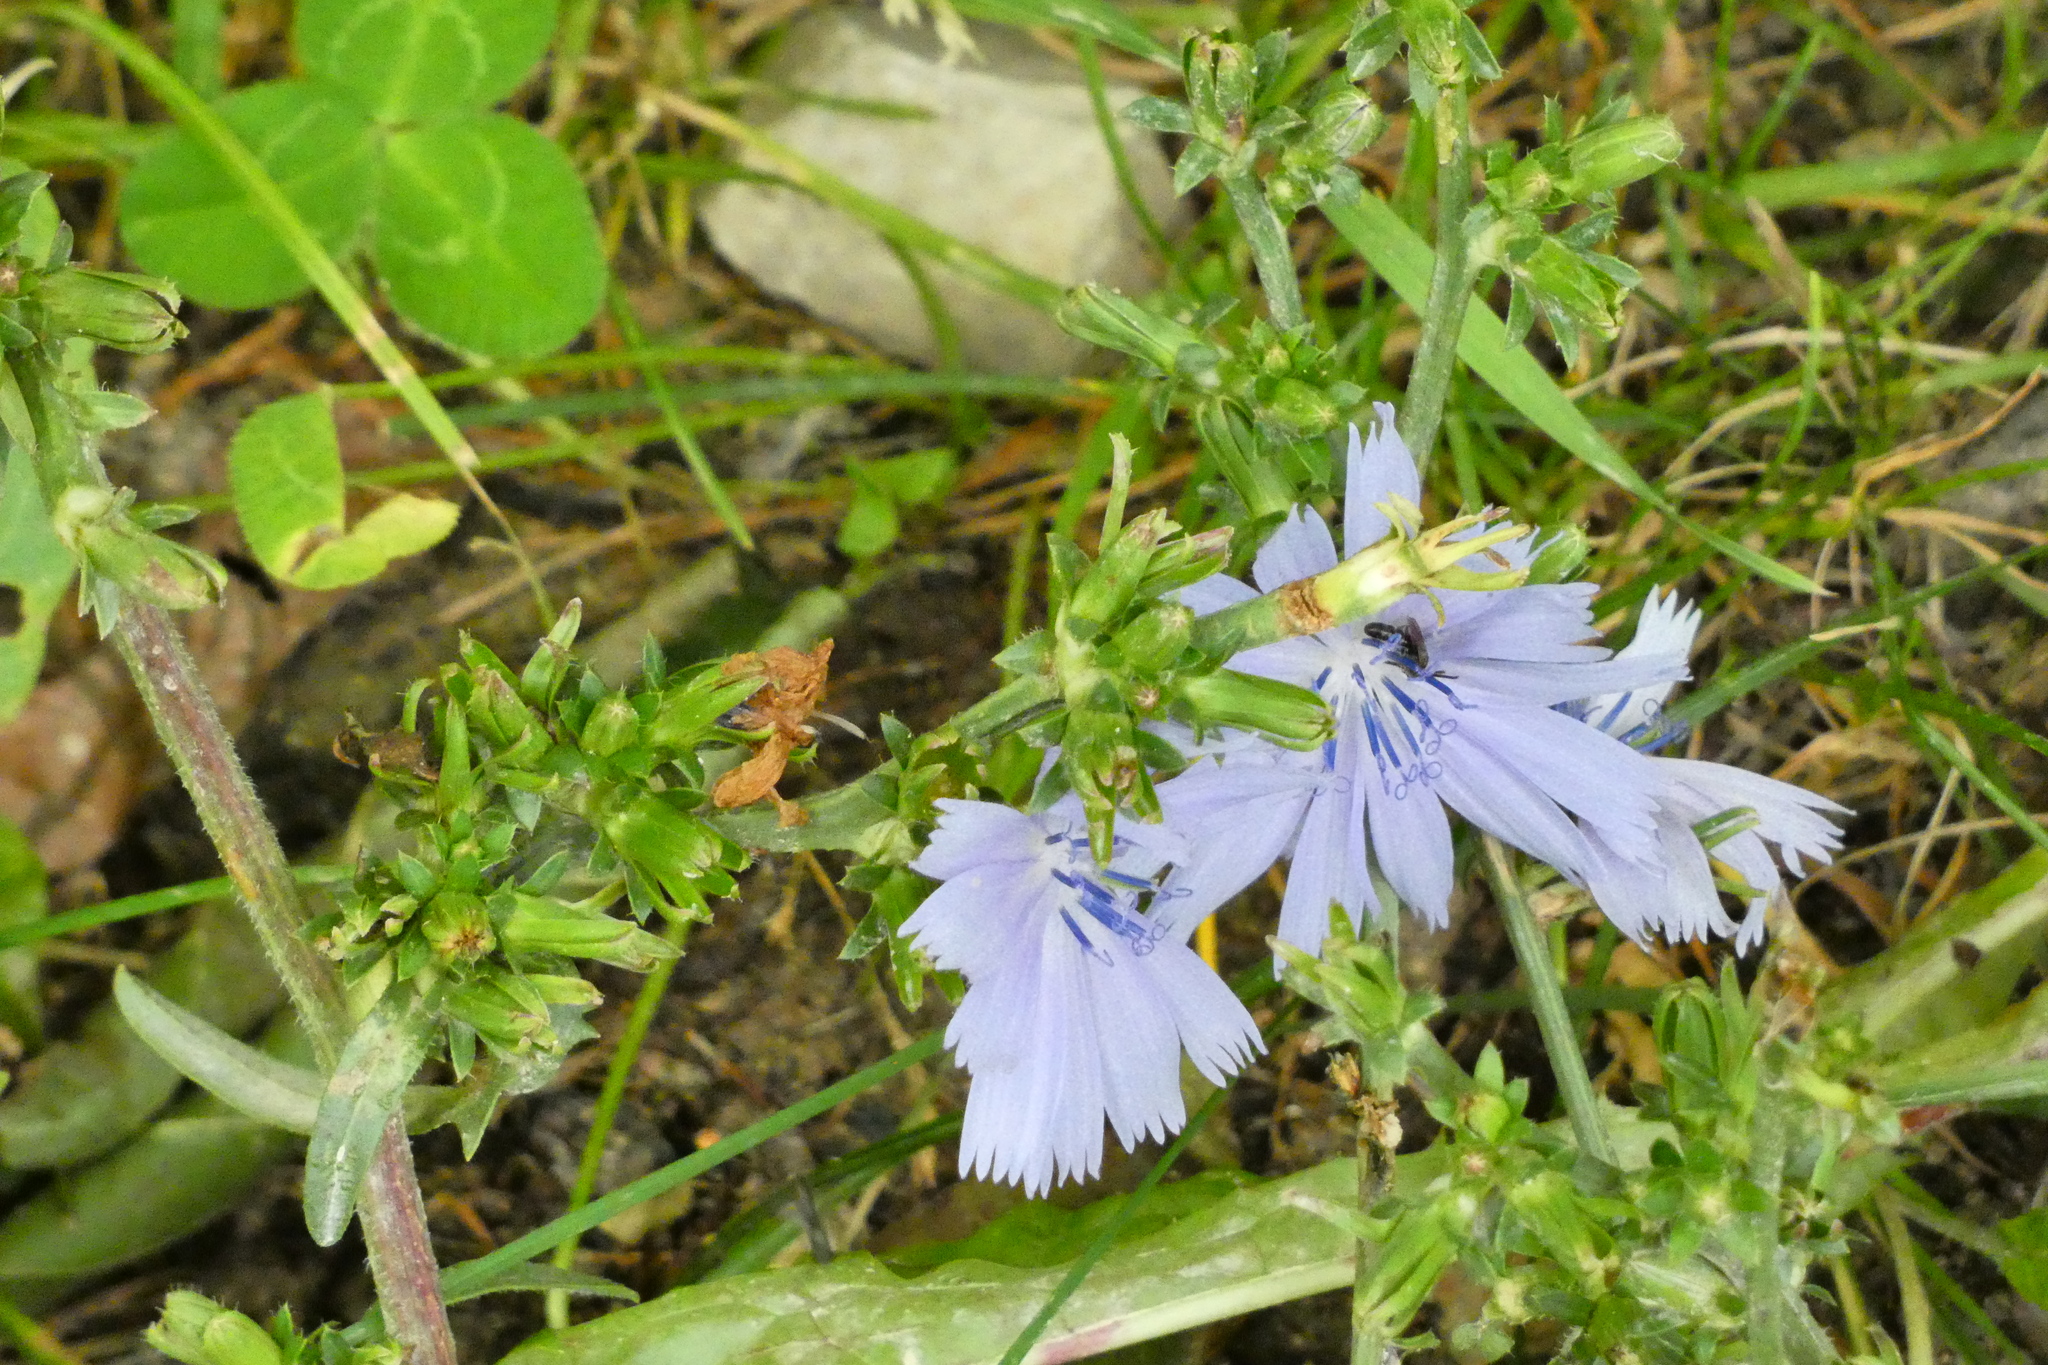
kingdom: Plantae
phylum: Tracheophyta
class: Magnoliopsida
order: Asterales
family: Asteraceae
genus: Cichorium
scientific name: Cichorium intybus
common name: Chicory
